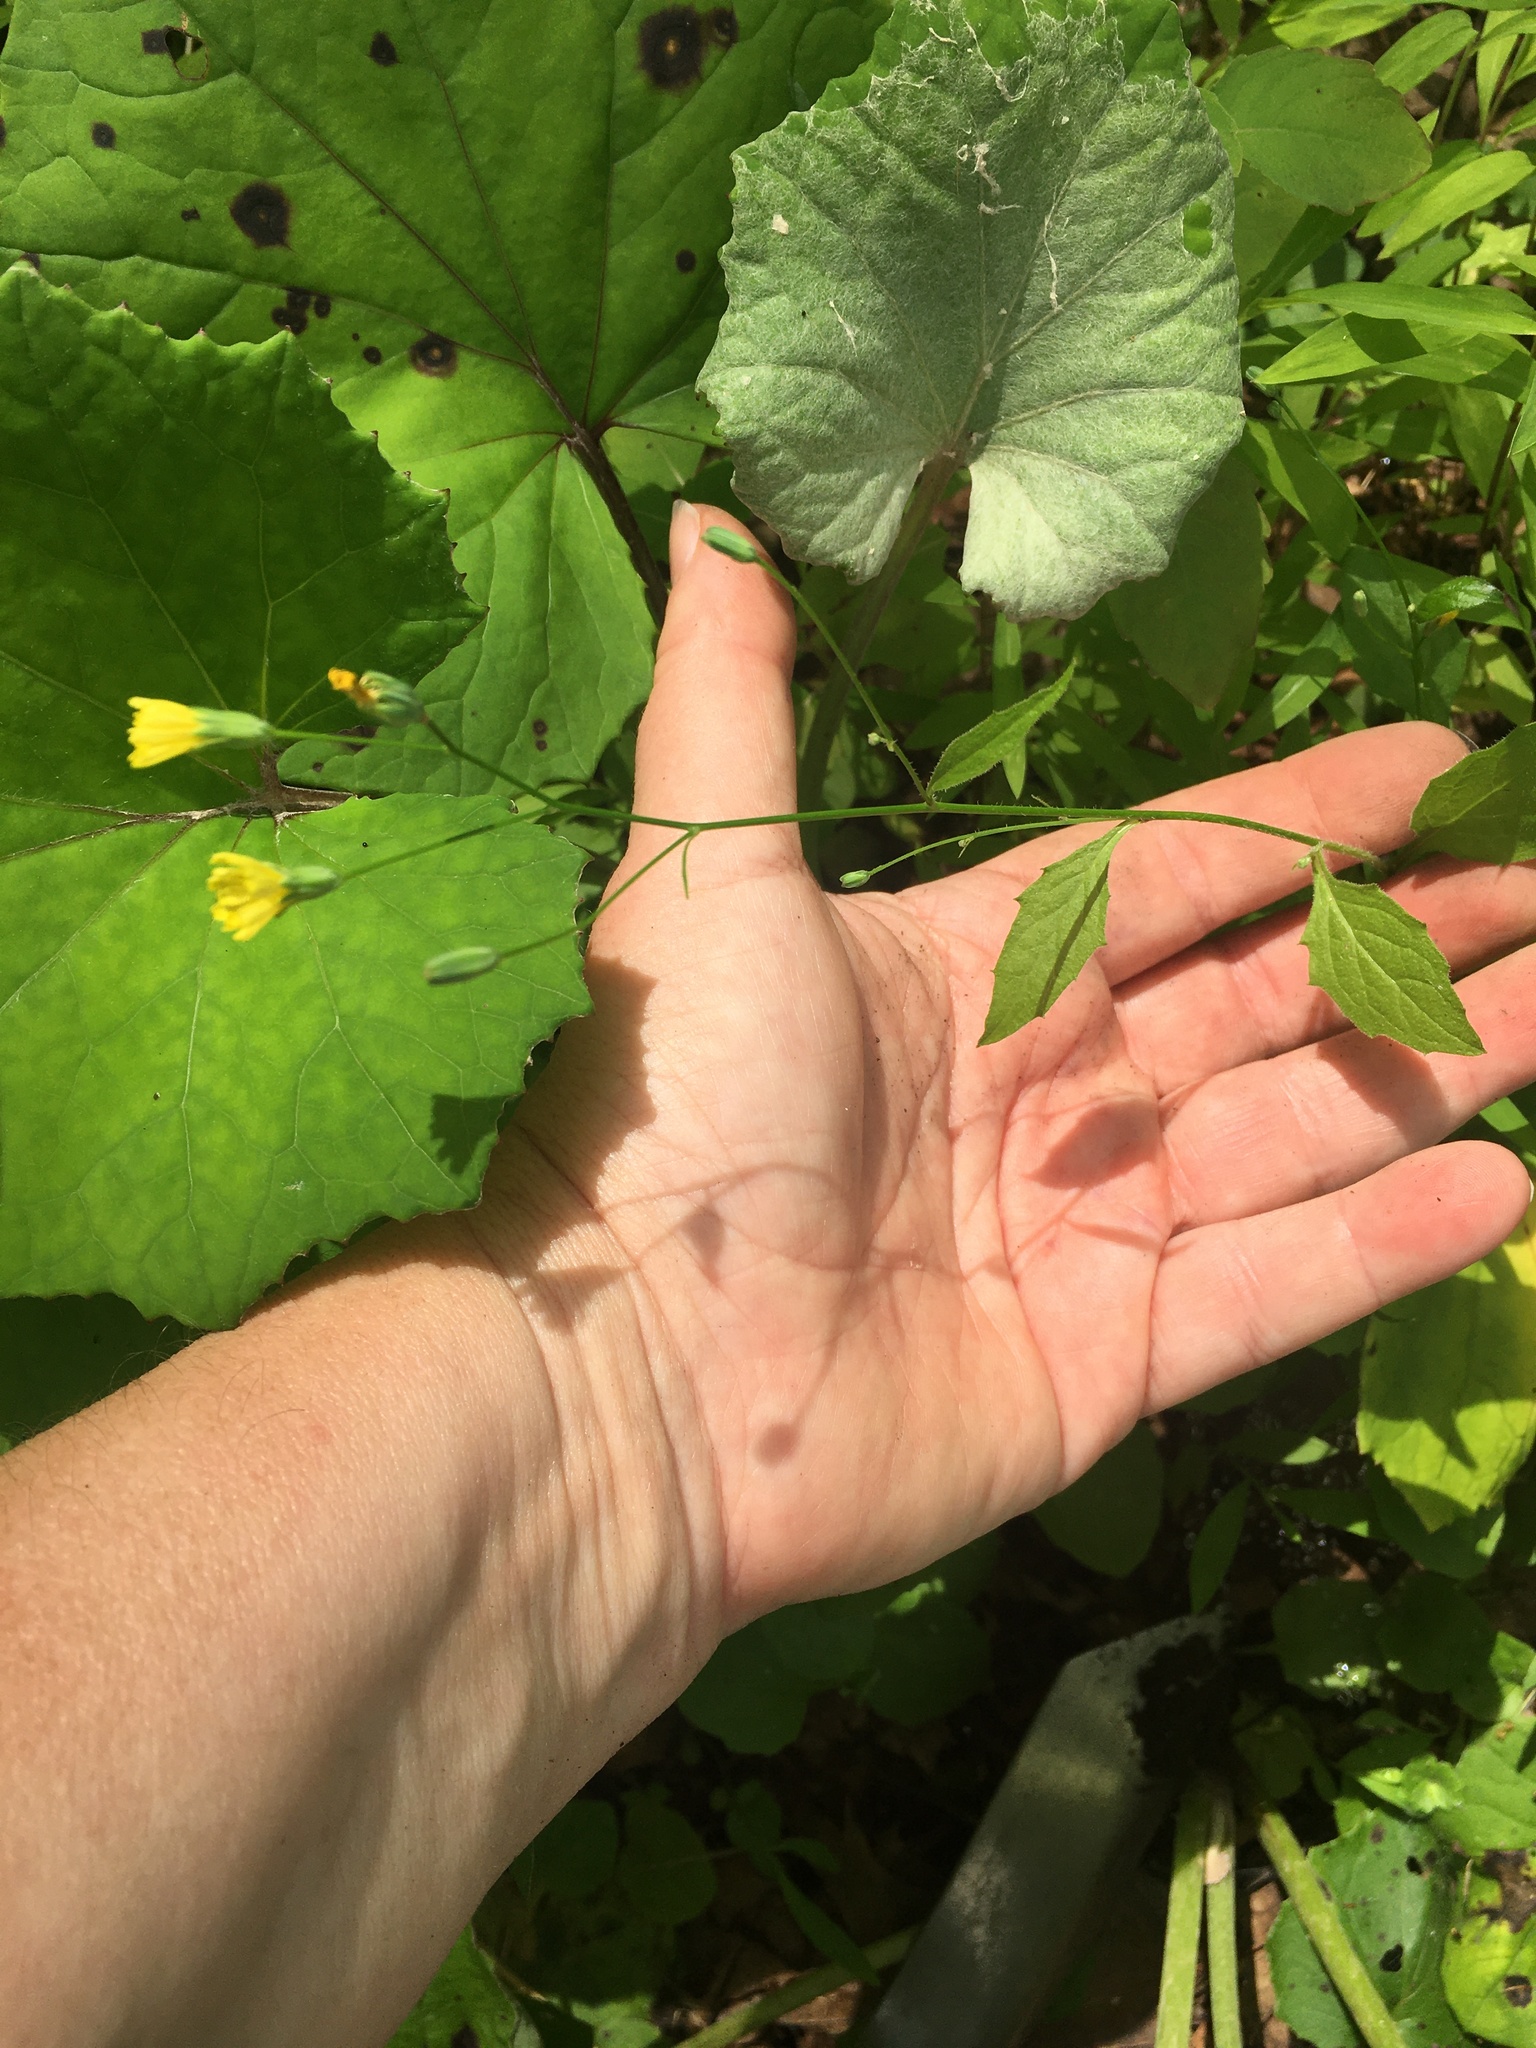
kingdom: Plantae
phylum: Tracheophyta
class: Magnoliopsida
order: Asterales
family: Asteraceae
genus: Lapsana
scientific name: Lapsana communis
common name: Nipplewort
